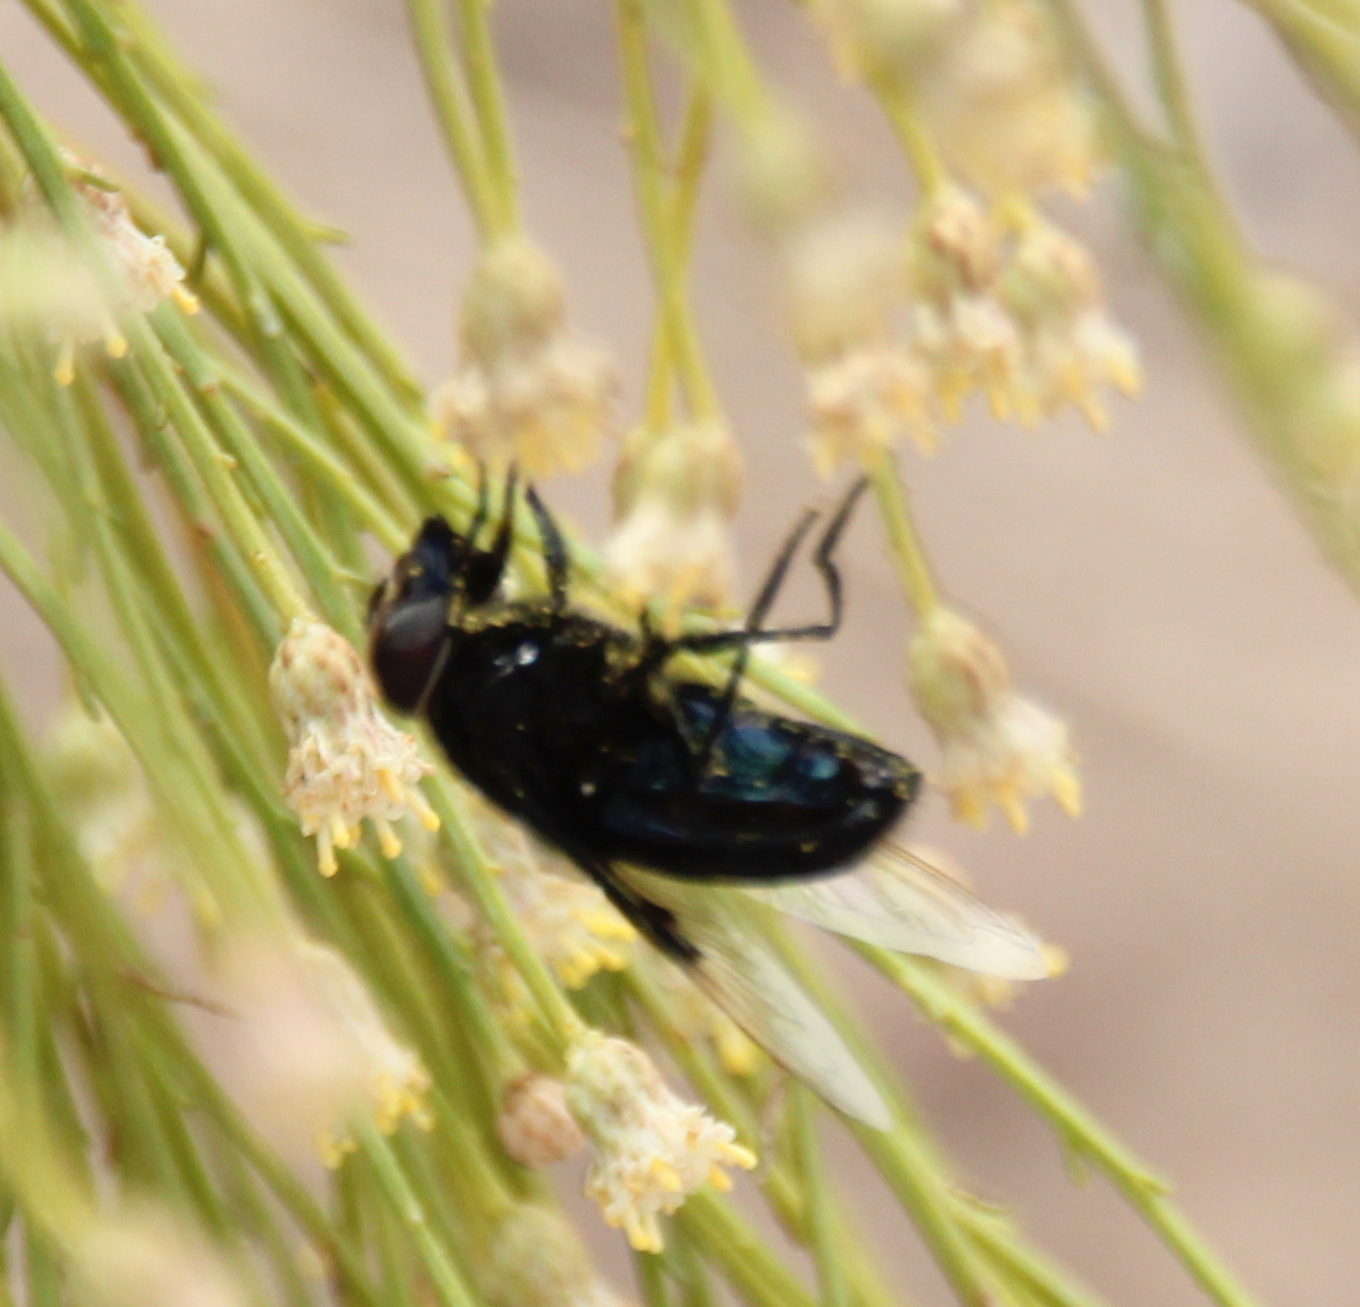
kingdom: Animalia
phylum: Arthropoda
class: Insecta
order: Diptera
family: Syrphidae
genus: Copestylum
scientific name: Copestylum mexicanum
